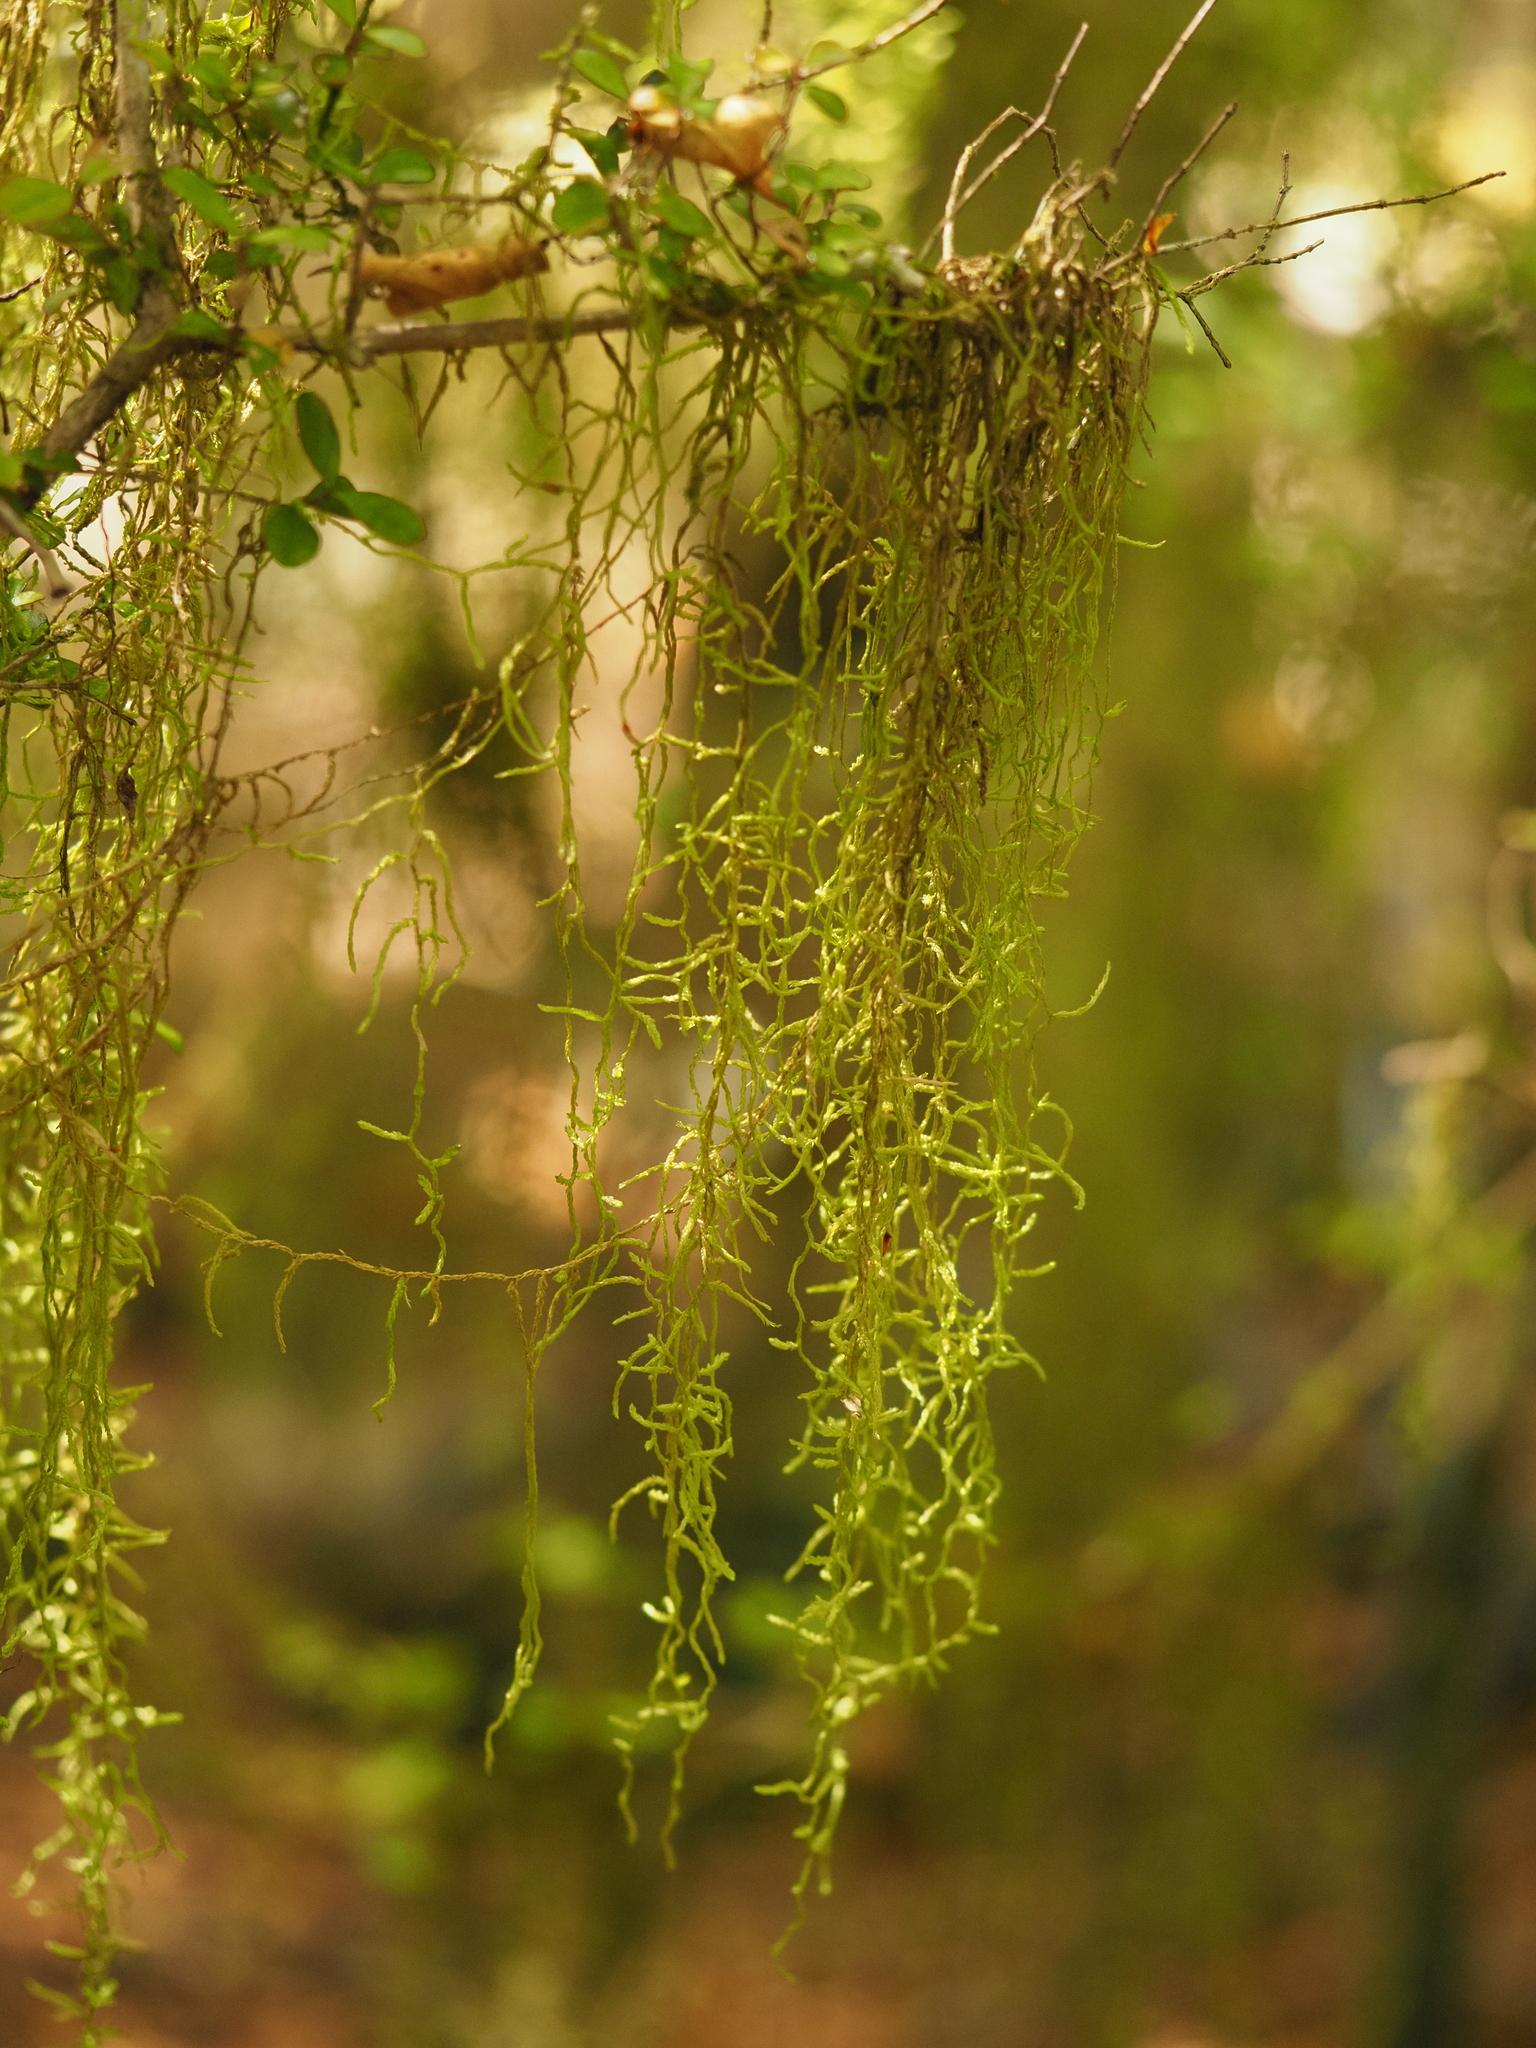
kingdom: Plantae
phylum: Bryophyta
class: Bryopsida
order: Hypnales
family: Lembophyllaceae
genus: Weymouthia
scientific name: Weymouthia mollis
